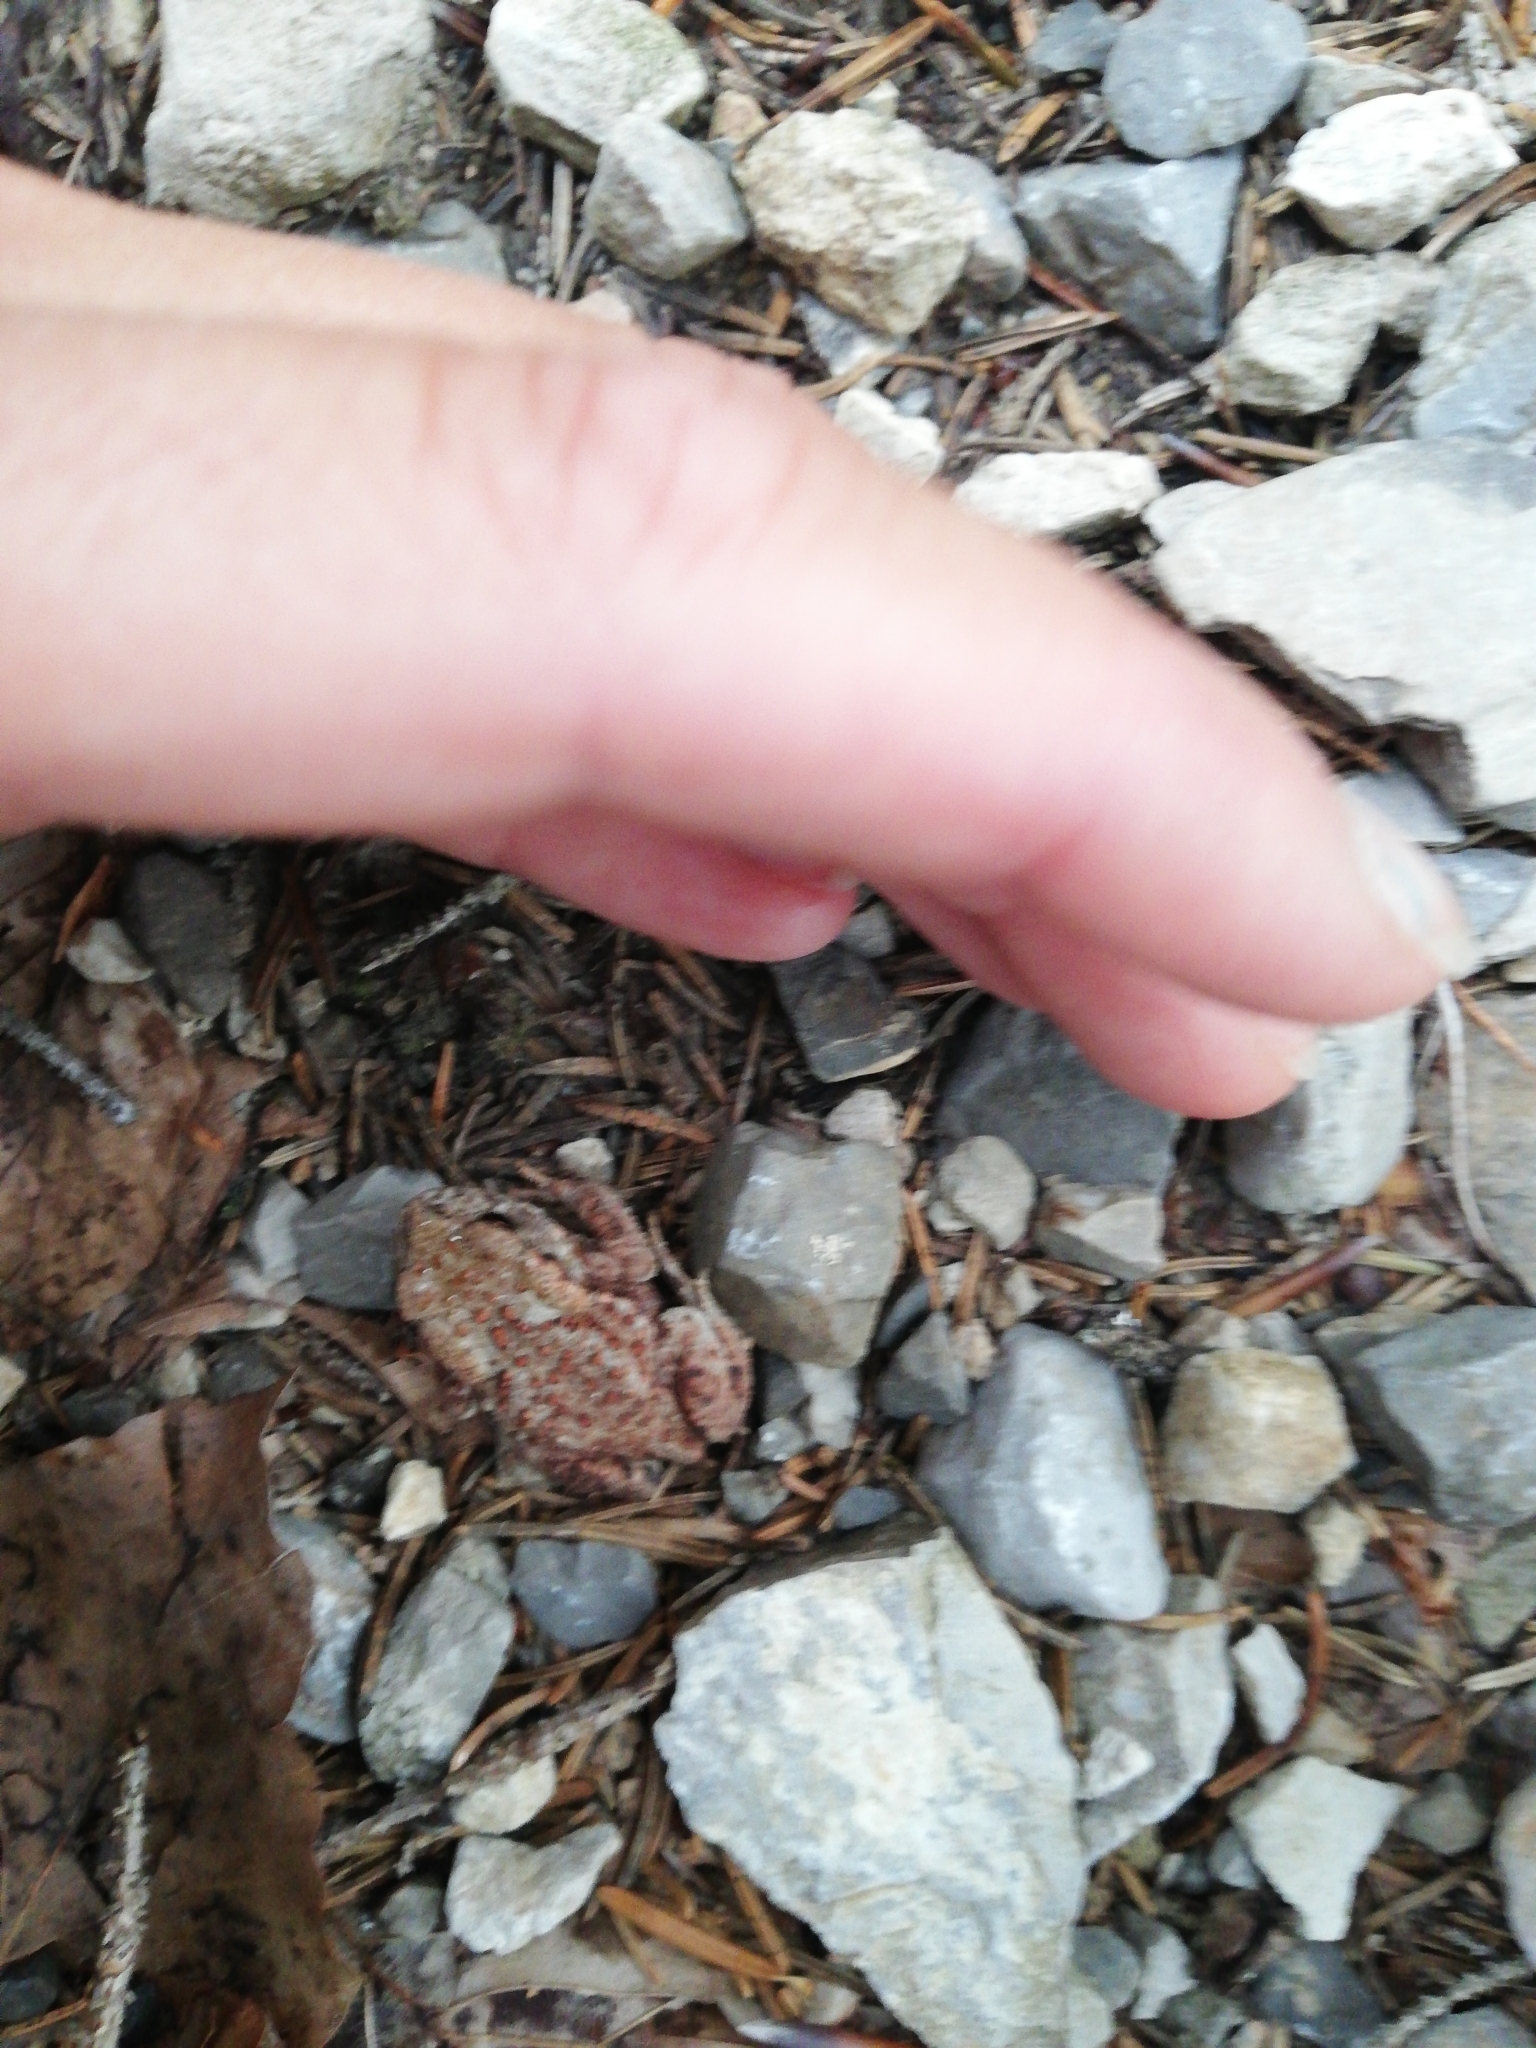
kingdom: Animalia
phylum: Chordata
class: Amphibia
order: Anura
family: Bufonidae
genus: Bufo
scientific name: Bufo bufo
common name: Common toad
